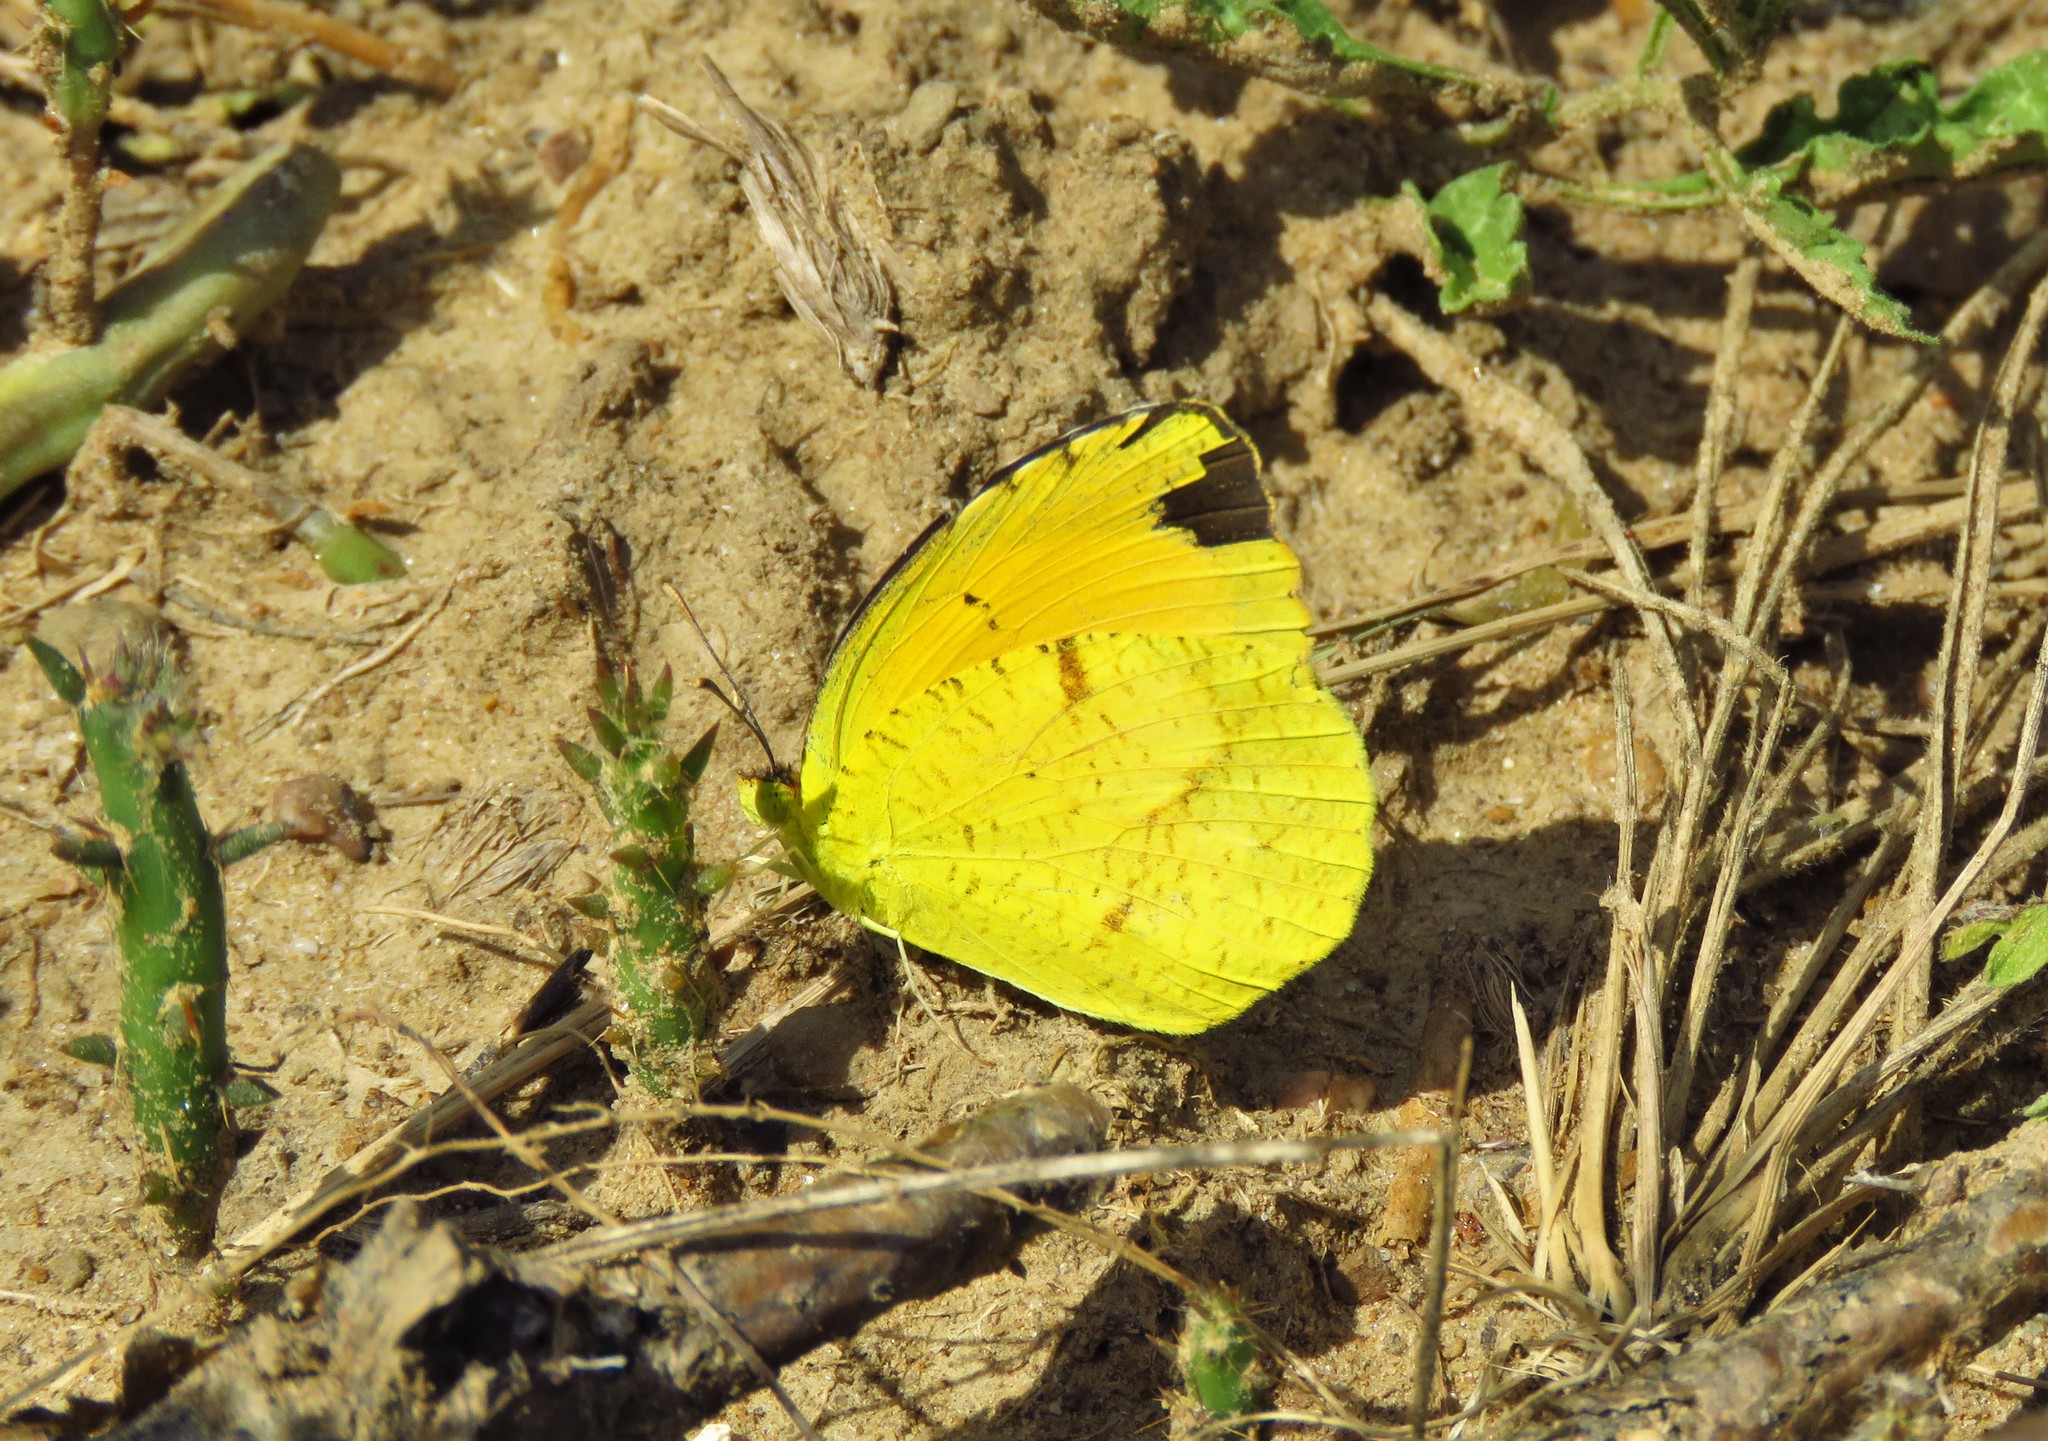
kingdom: Animalia
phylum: Arthropoda
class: Insecta
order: Lepidoptera
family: Pieridae
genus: Abaeis
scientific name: Abaeis nicippe
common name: Sleepy orange
